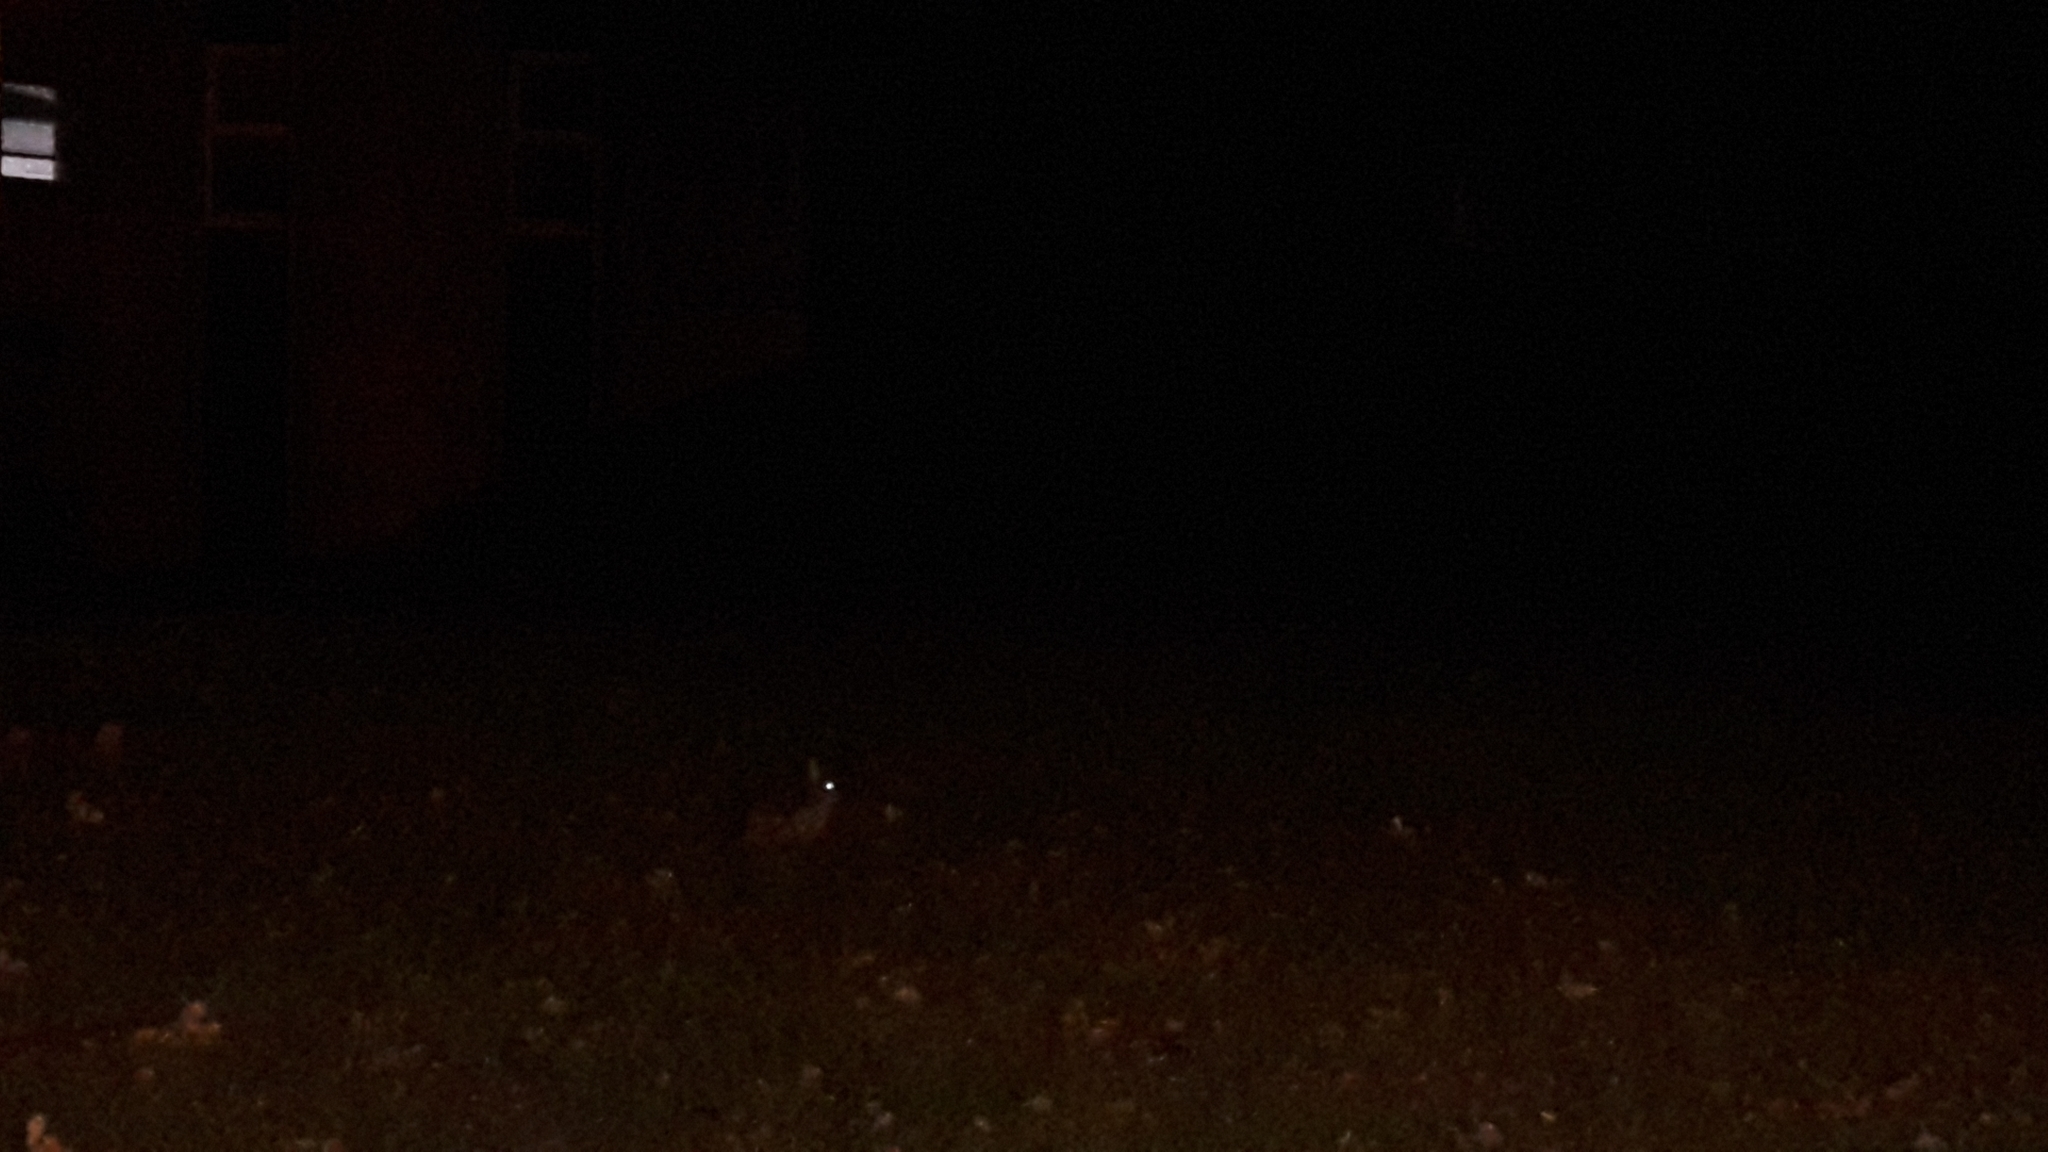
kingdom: Animalia
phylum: Chordata
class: Mammalia
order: Lagomorpha
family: Leporidae
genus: Oryctolagus
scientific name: Oryctolagus cuniculus
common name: European rabbit
